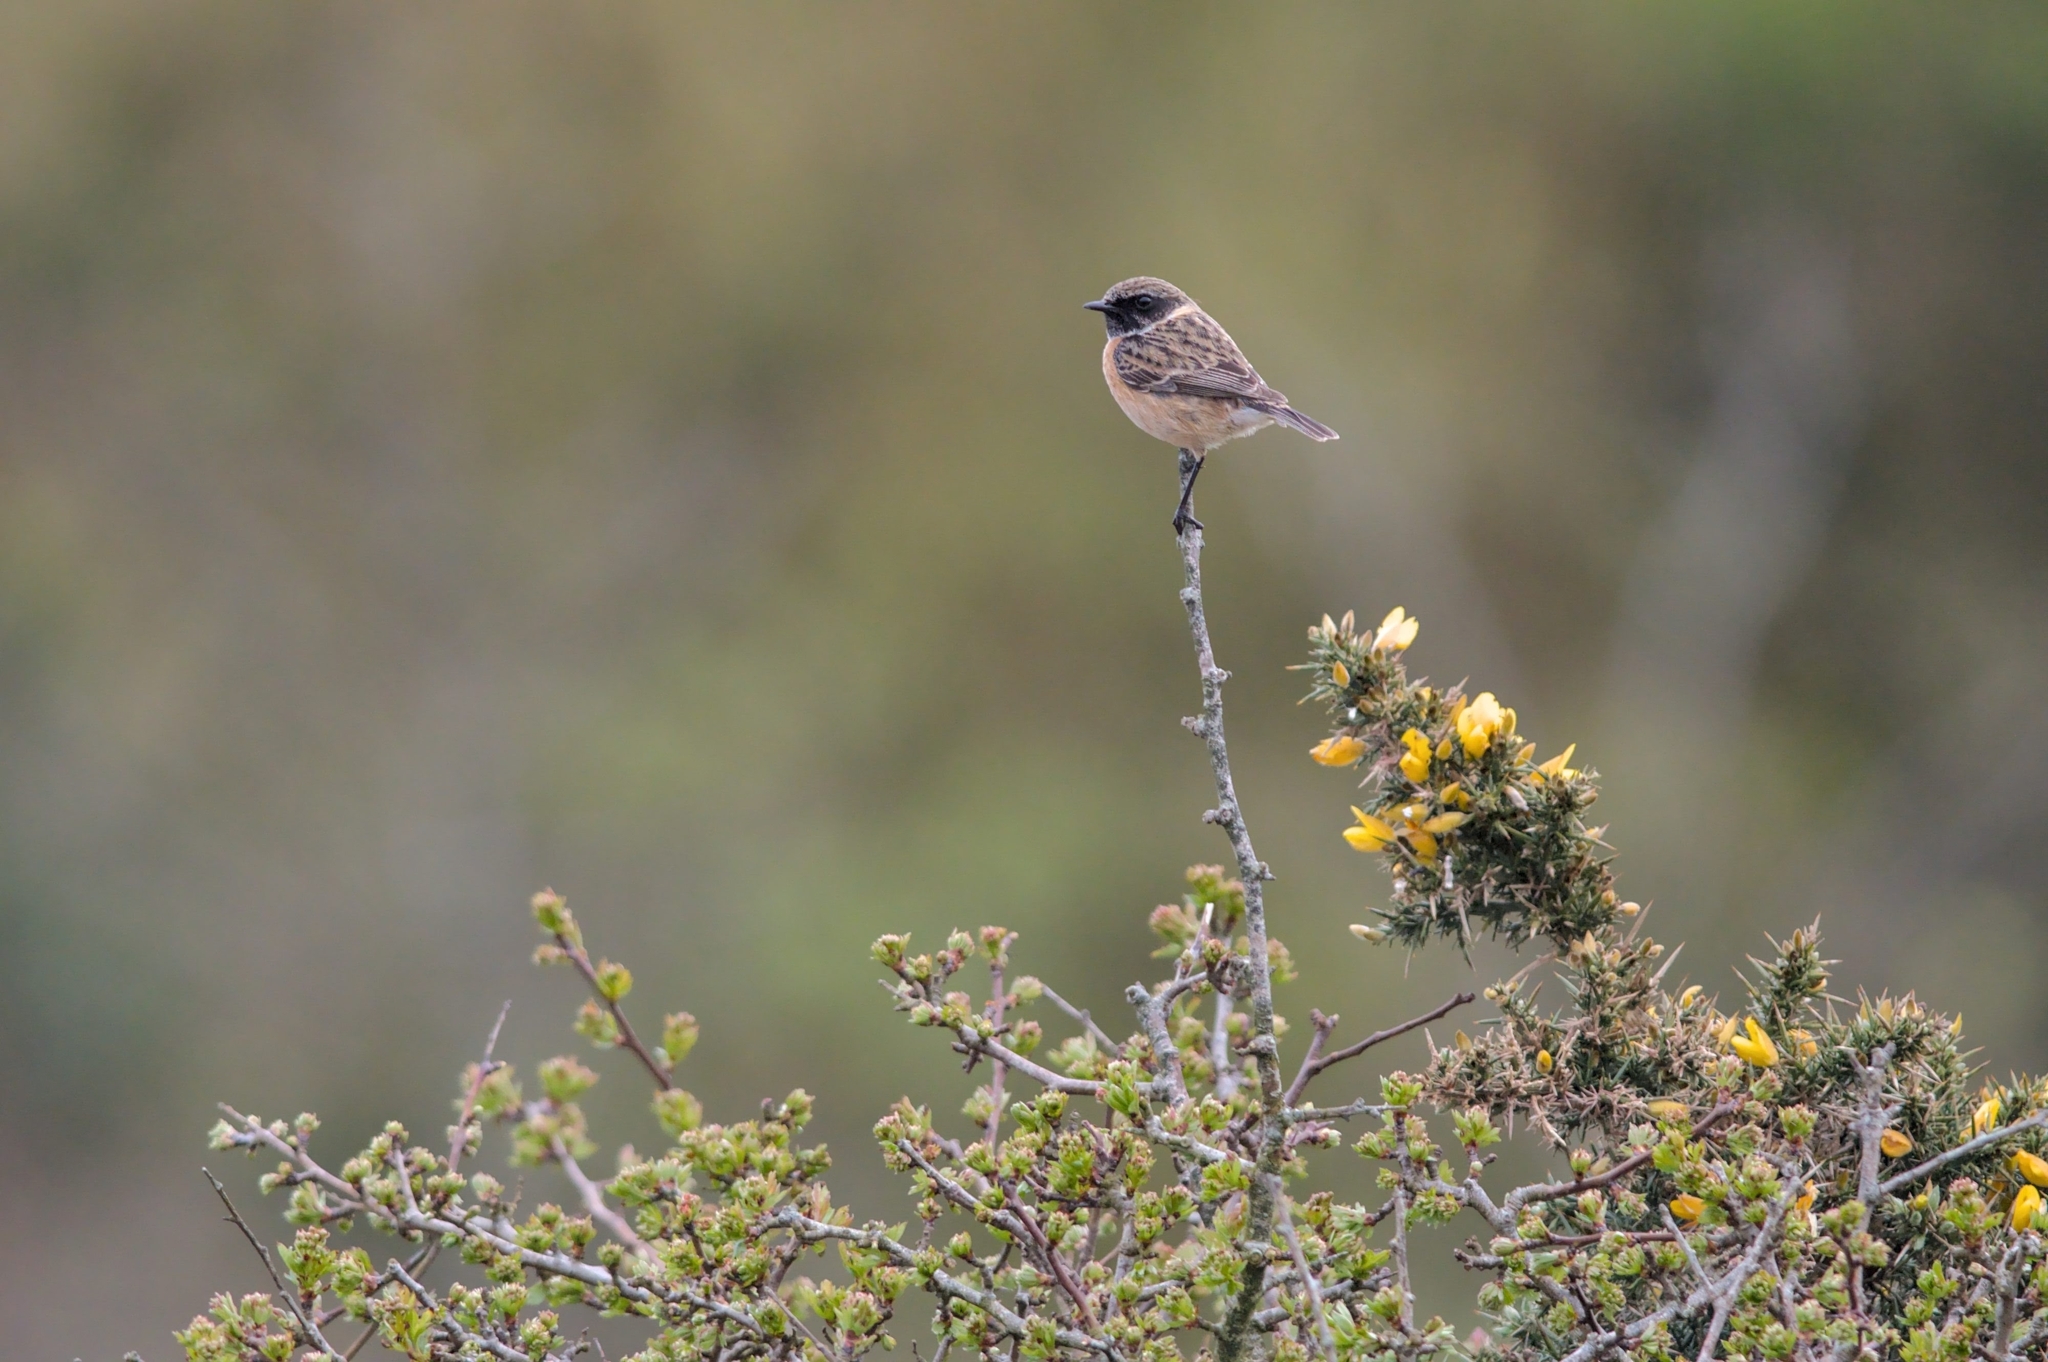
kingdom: Animalia
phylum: Chordata
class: Aves
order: Passeriformes
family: Muscicapidae
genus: Saxicola
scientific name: Saxicola rubicola
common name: European stonechat
